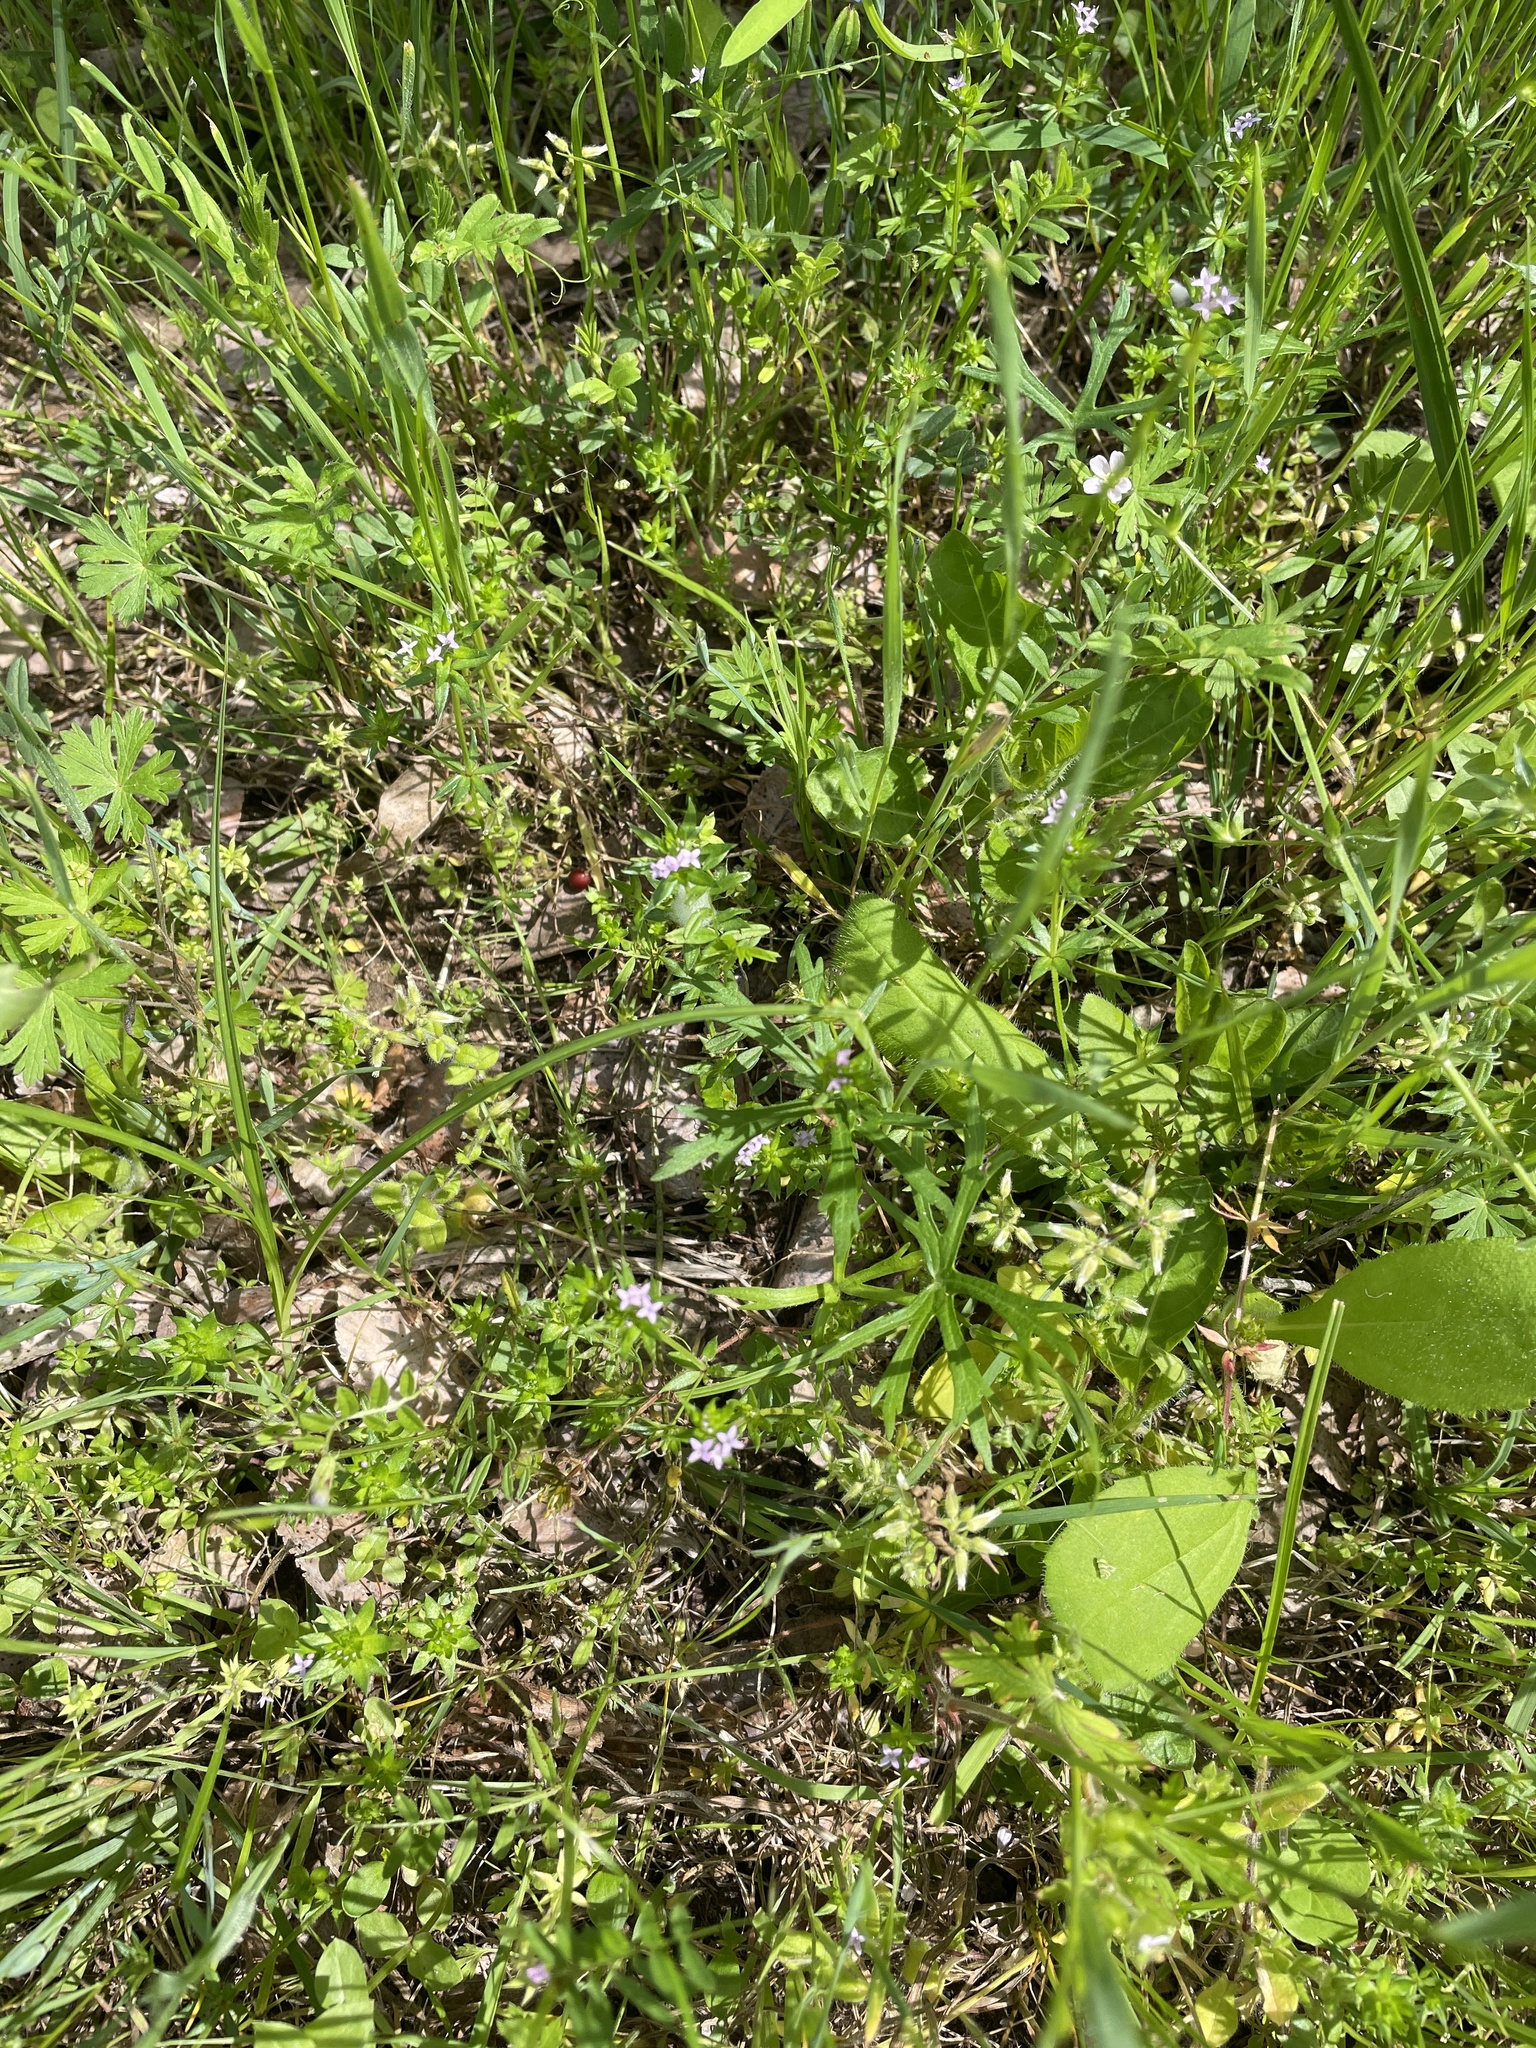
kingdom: Plantae
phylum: Tracheophyta
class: Magnoliopsida
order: Gentianales
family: Rubiaceae
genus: Sherardia
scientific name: Sherardia arvensis
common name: Field madder
